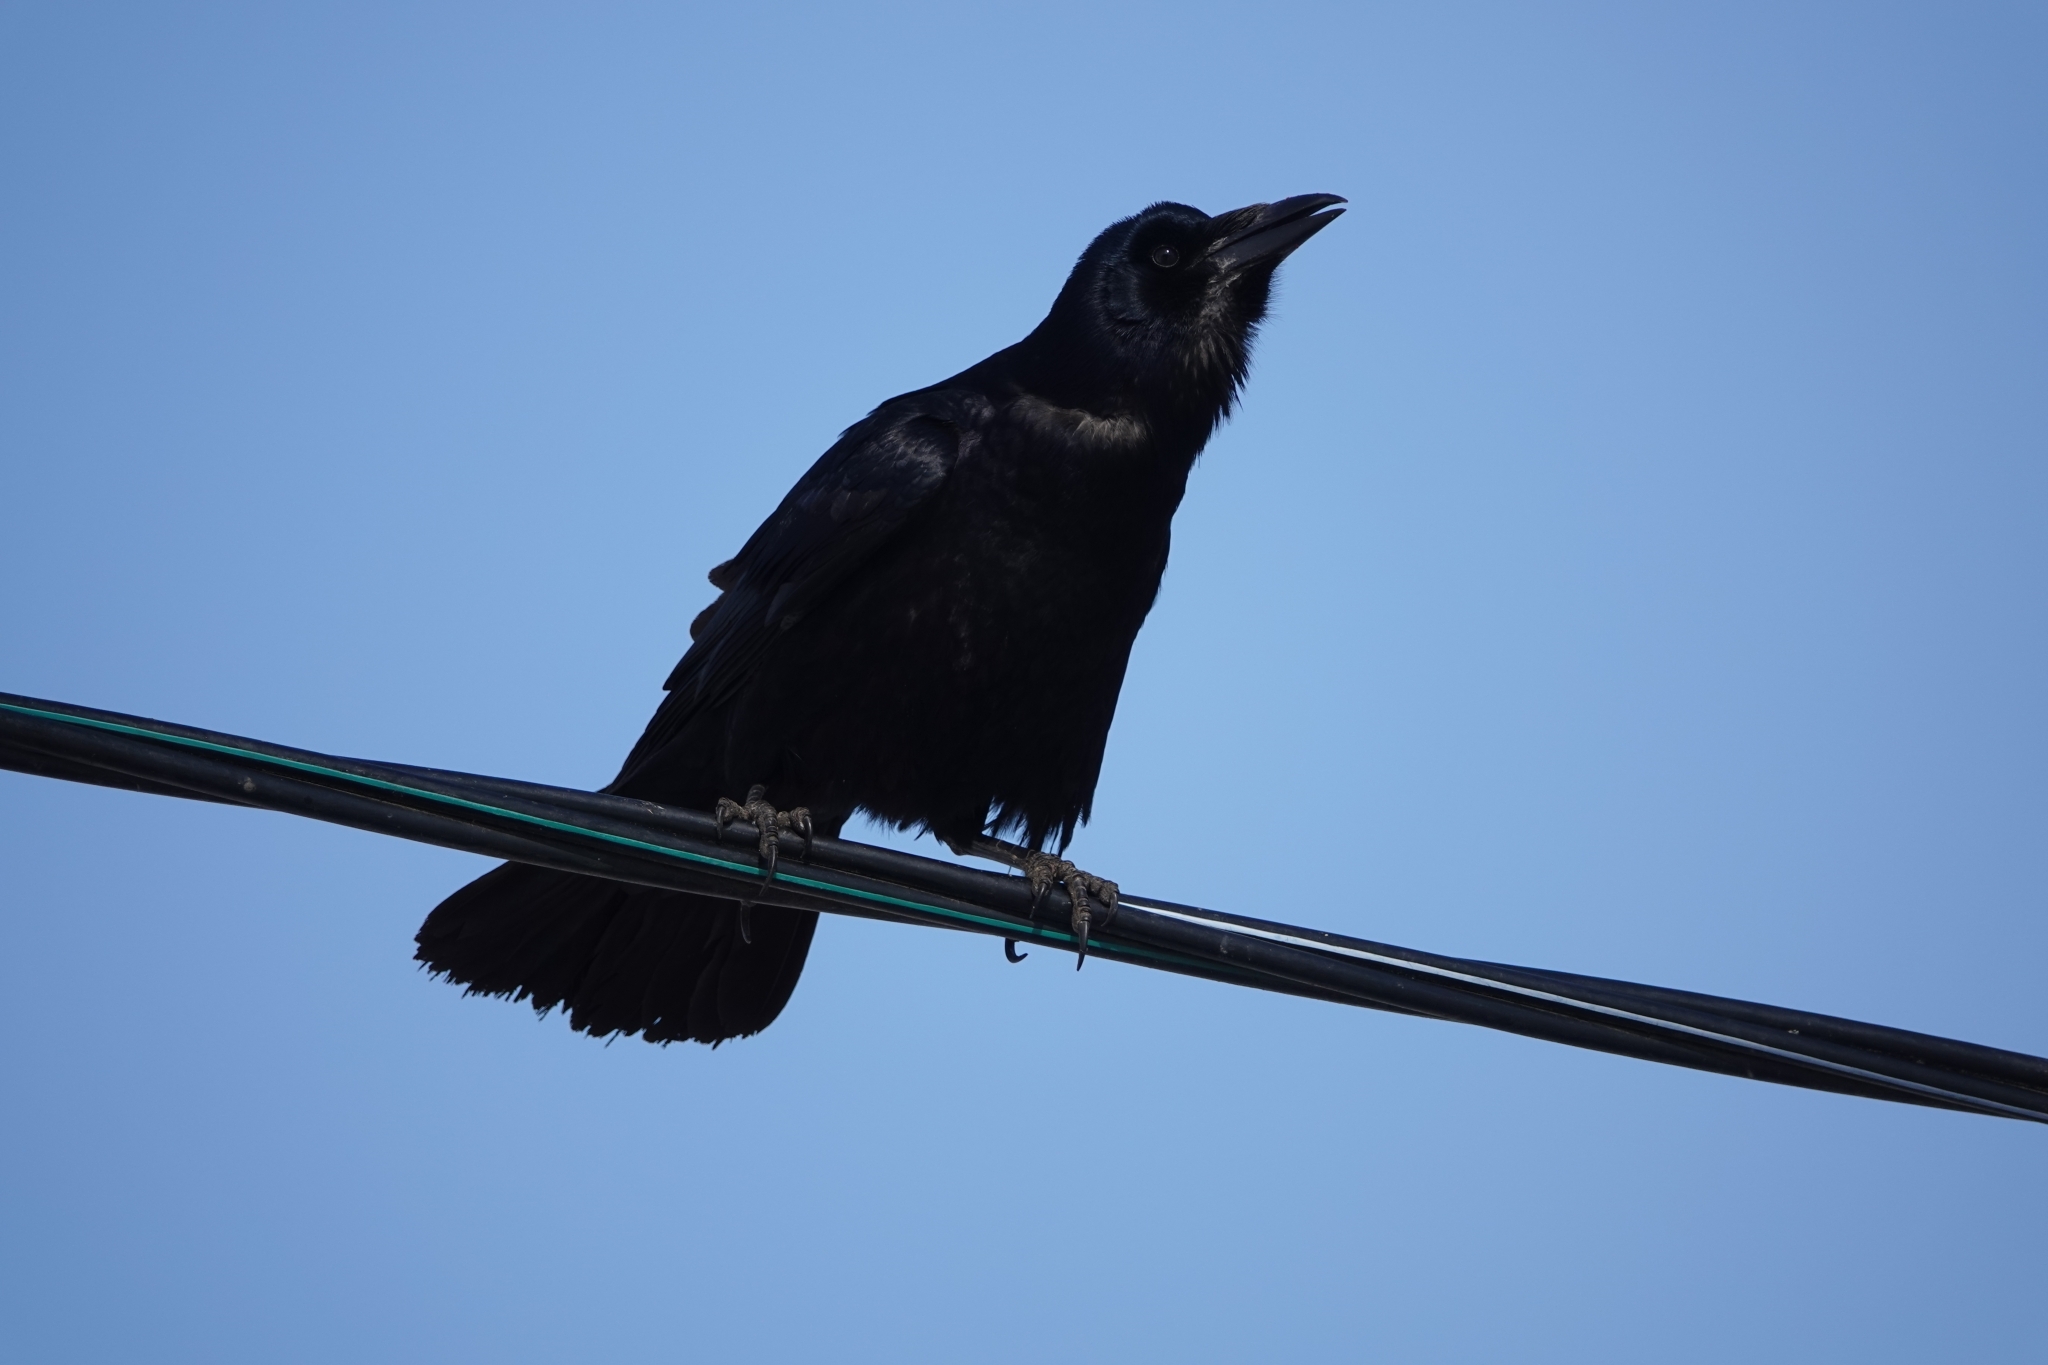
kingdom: Animalia
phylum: Chordata
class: Aves
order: Passeriformes
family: Corvidae
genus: Corvus
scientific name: Corvus frugilegus
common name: Rook
